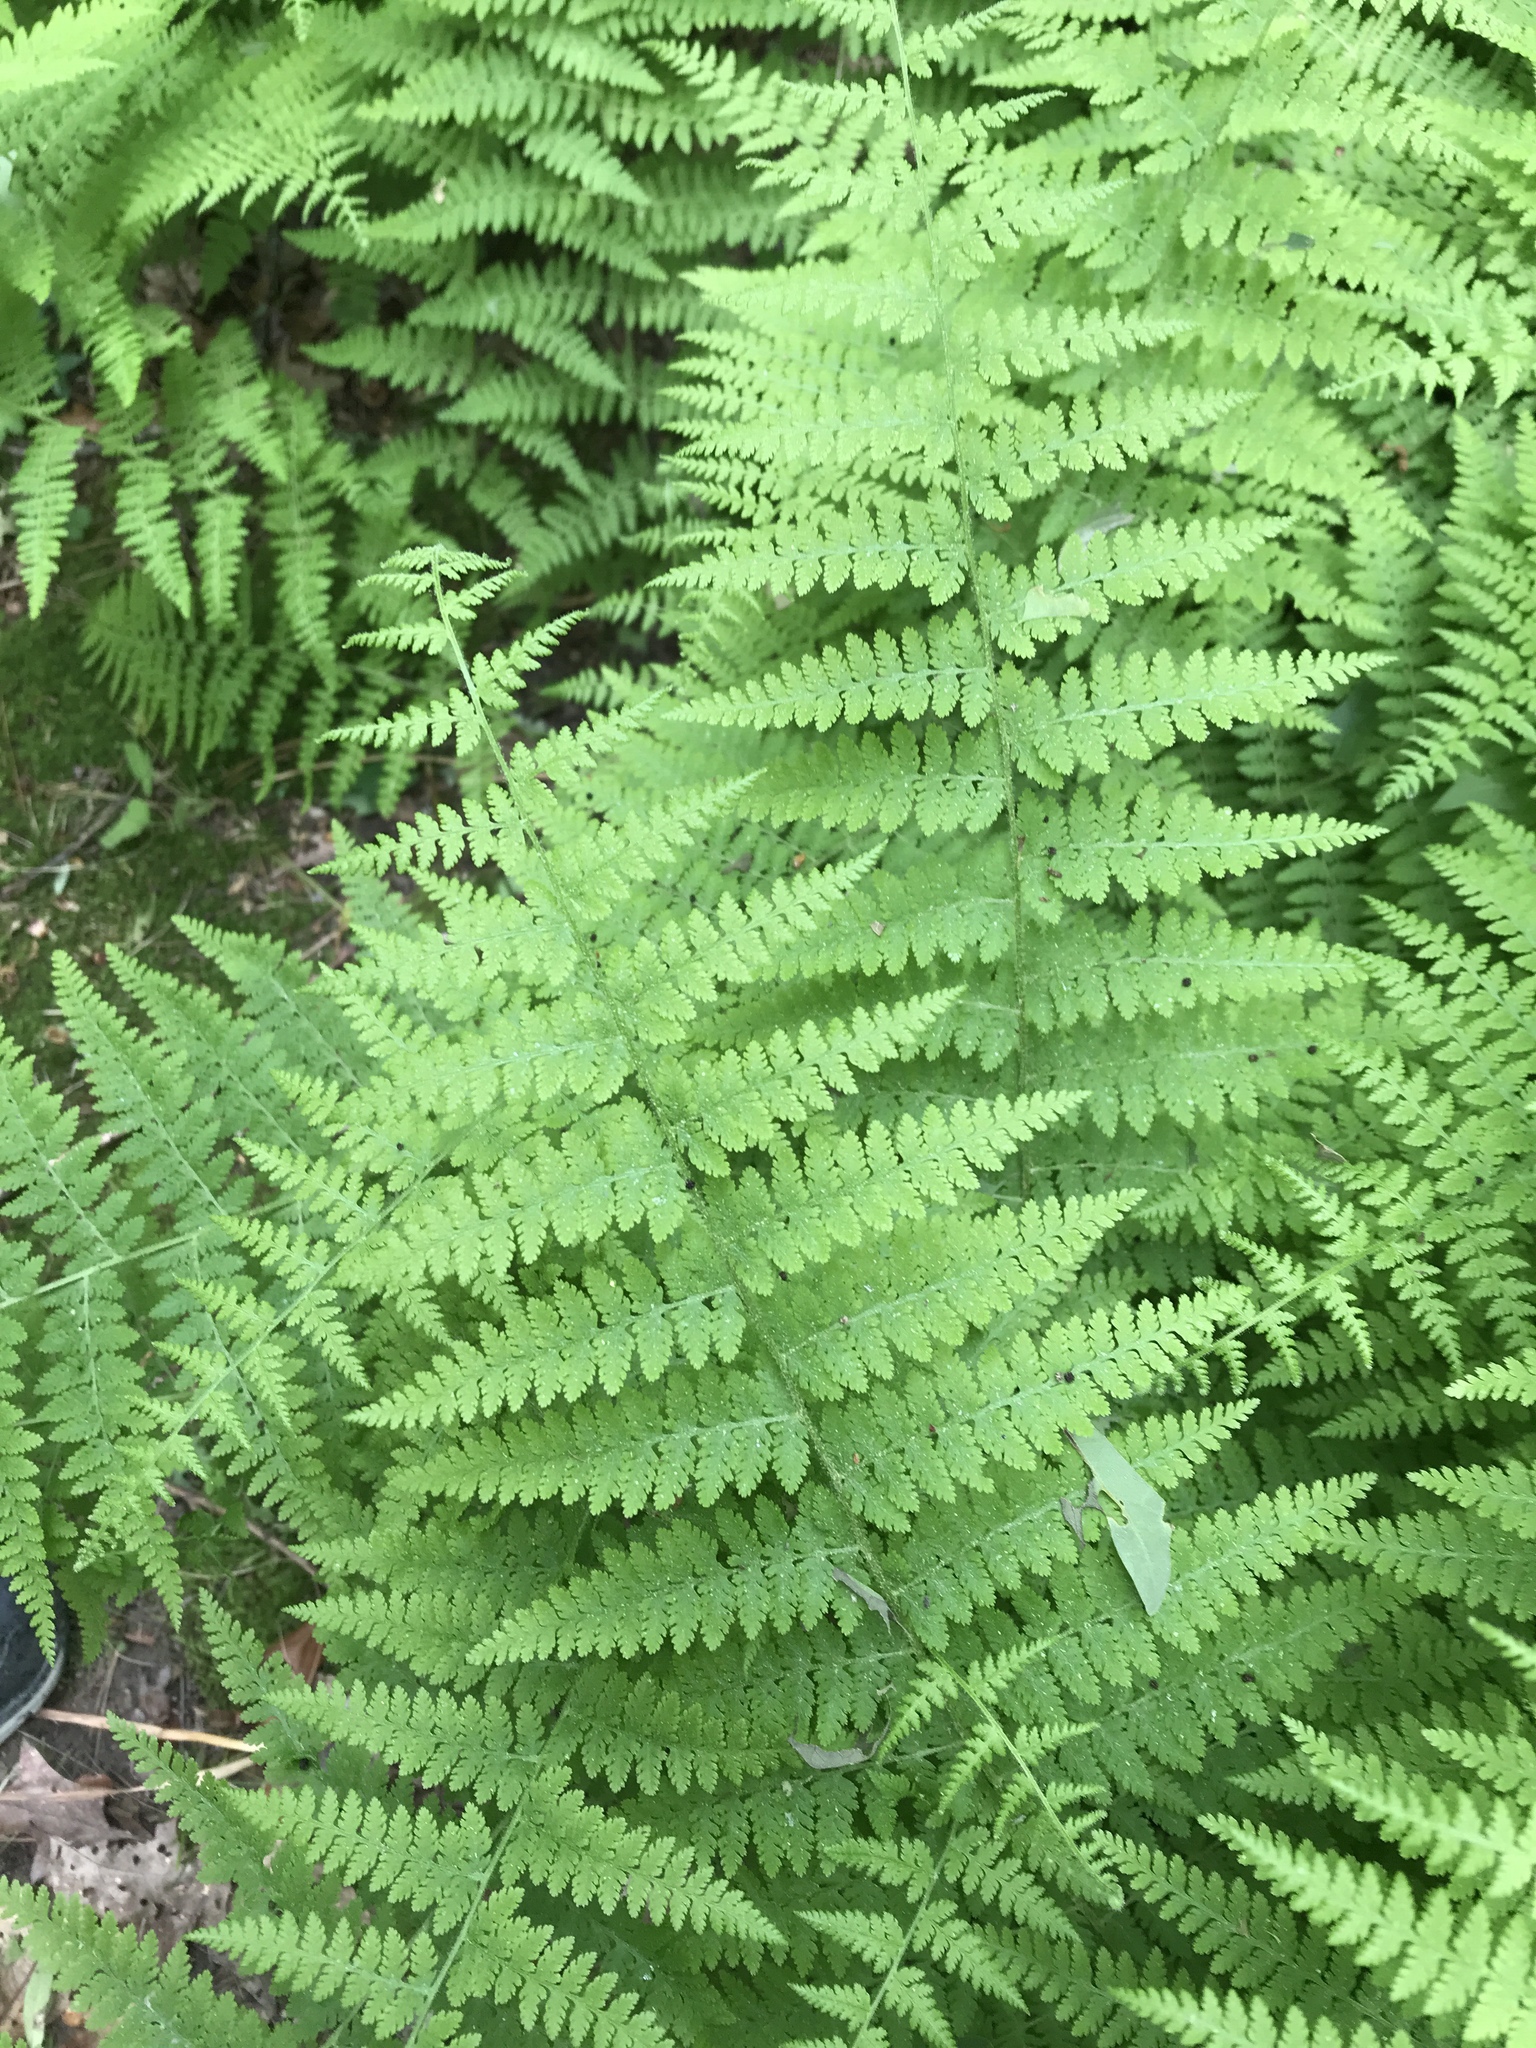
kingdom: Plantae
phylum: Tracheophyta
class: Polypodiopsida
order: Polypodiales
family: Dennstaedtiaceae
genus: Sitobolium
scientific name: Sitobolium punctilobum
